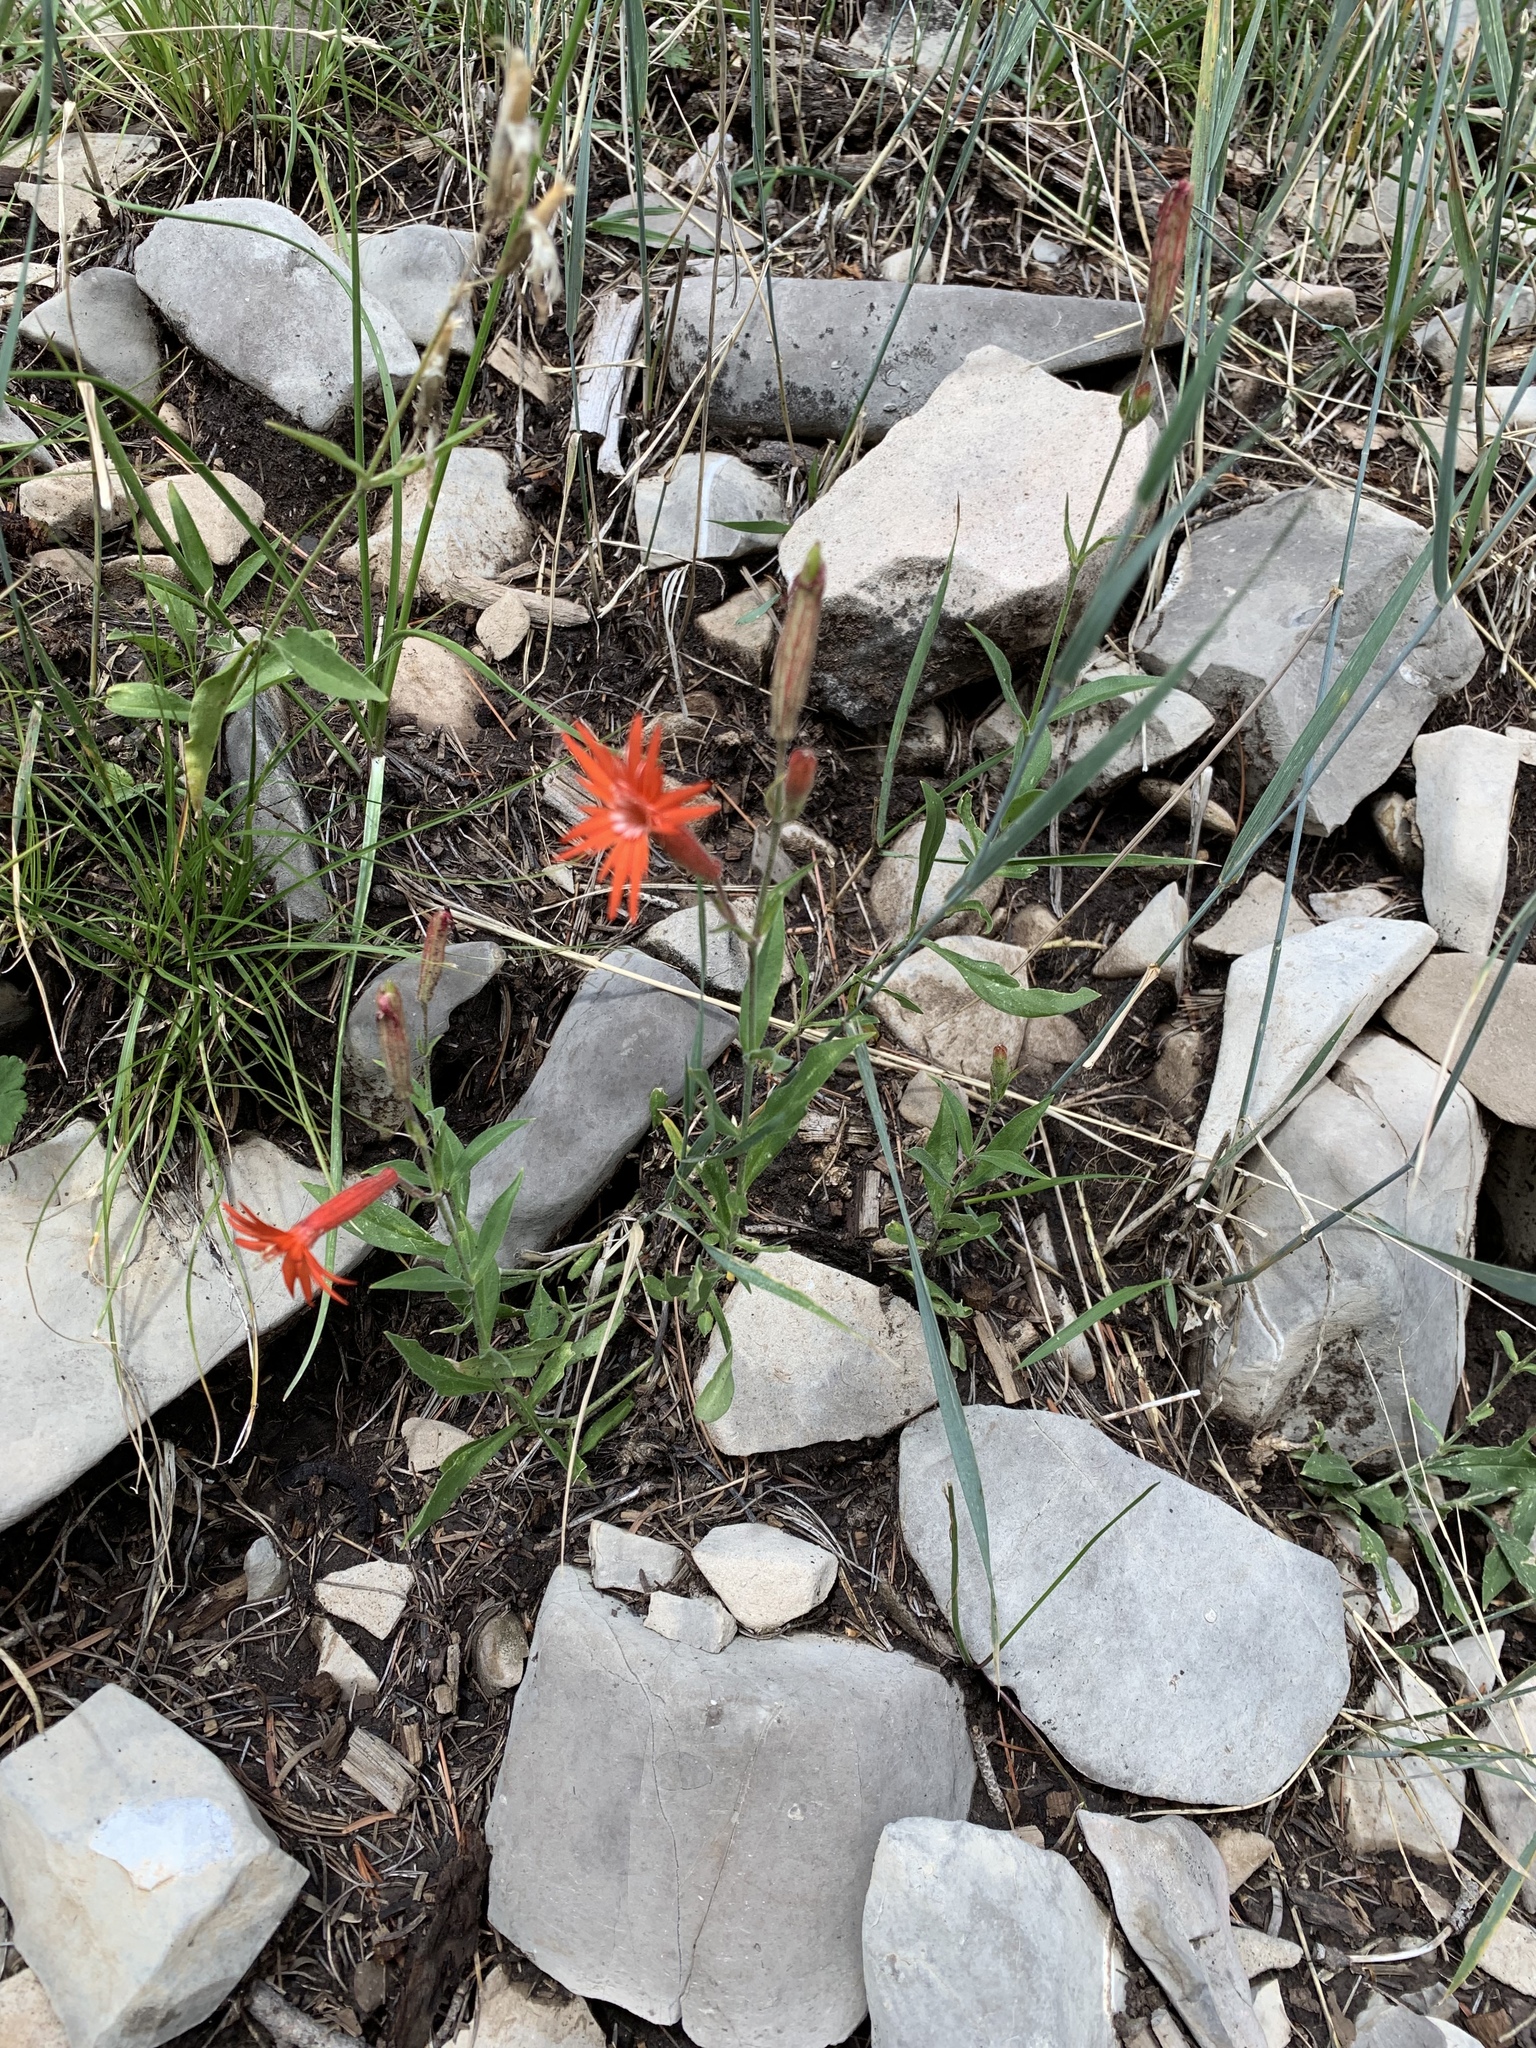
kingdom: Plantae
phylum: Tracheophyta
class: Magnoliopsida
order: Caryophyllales
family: Caryophyllaceae
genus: Silene
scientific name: Silene laciniata
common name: Indian-pink
